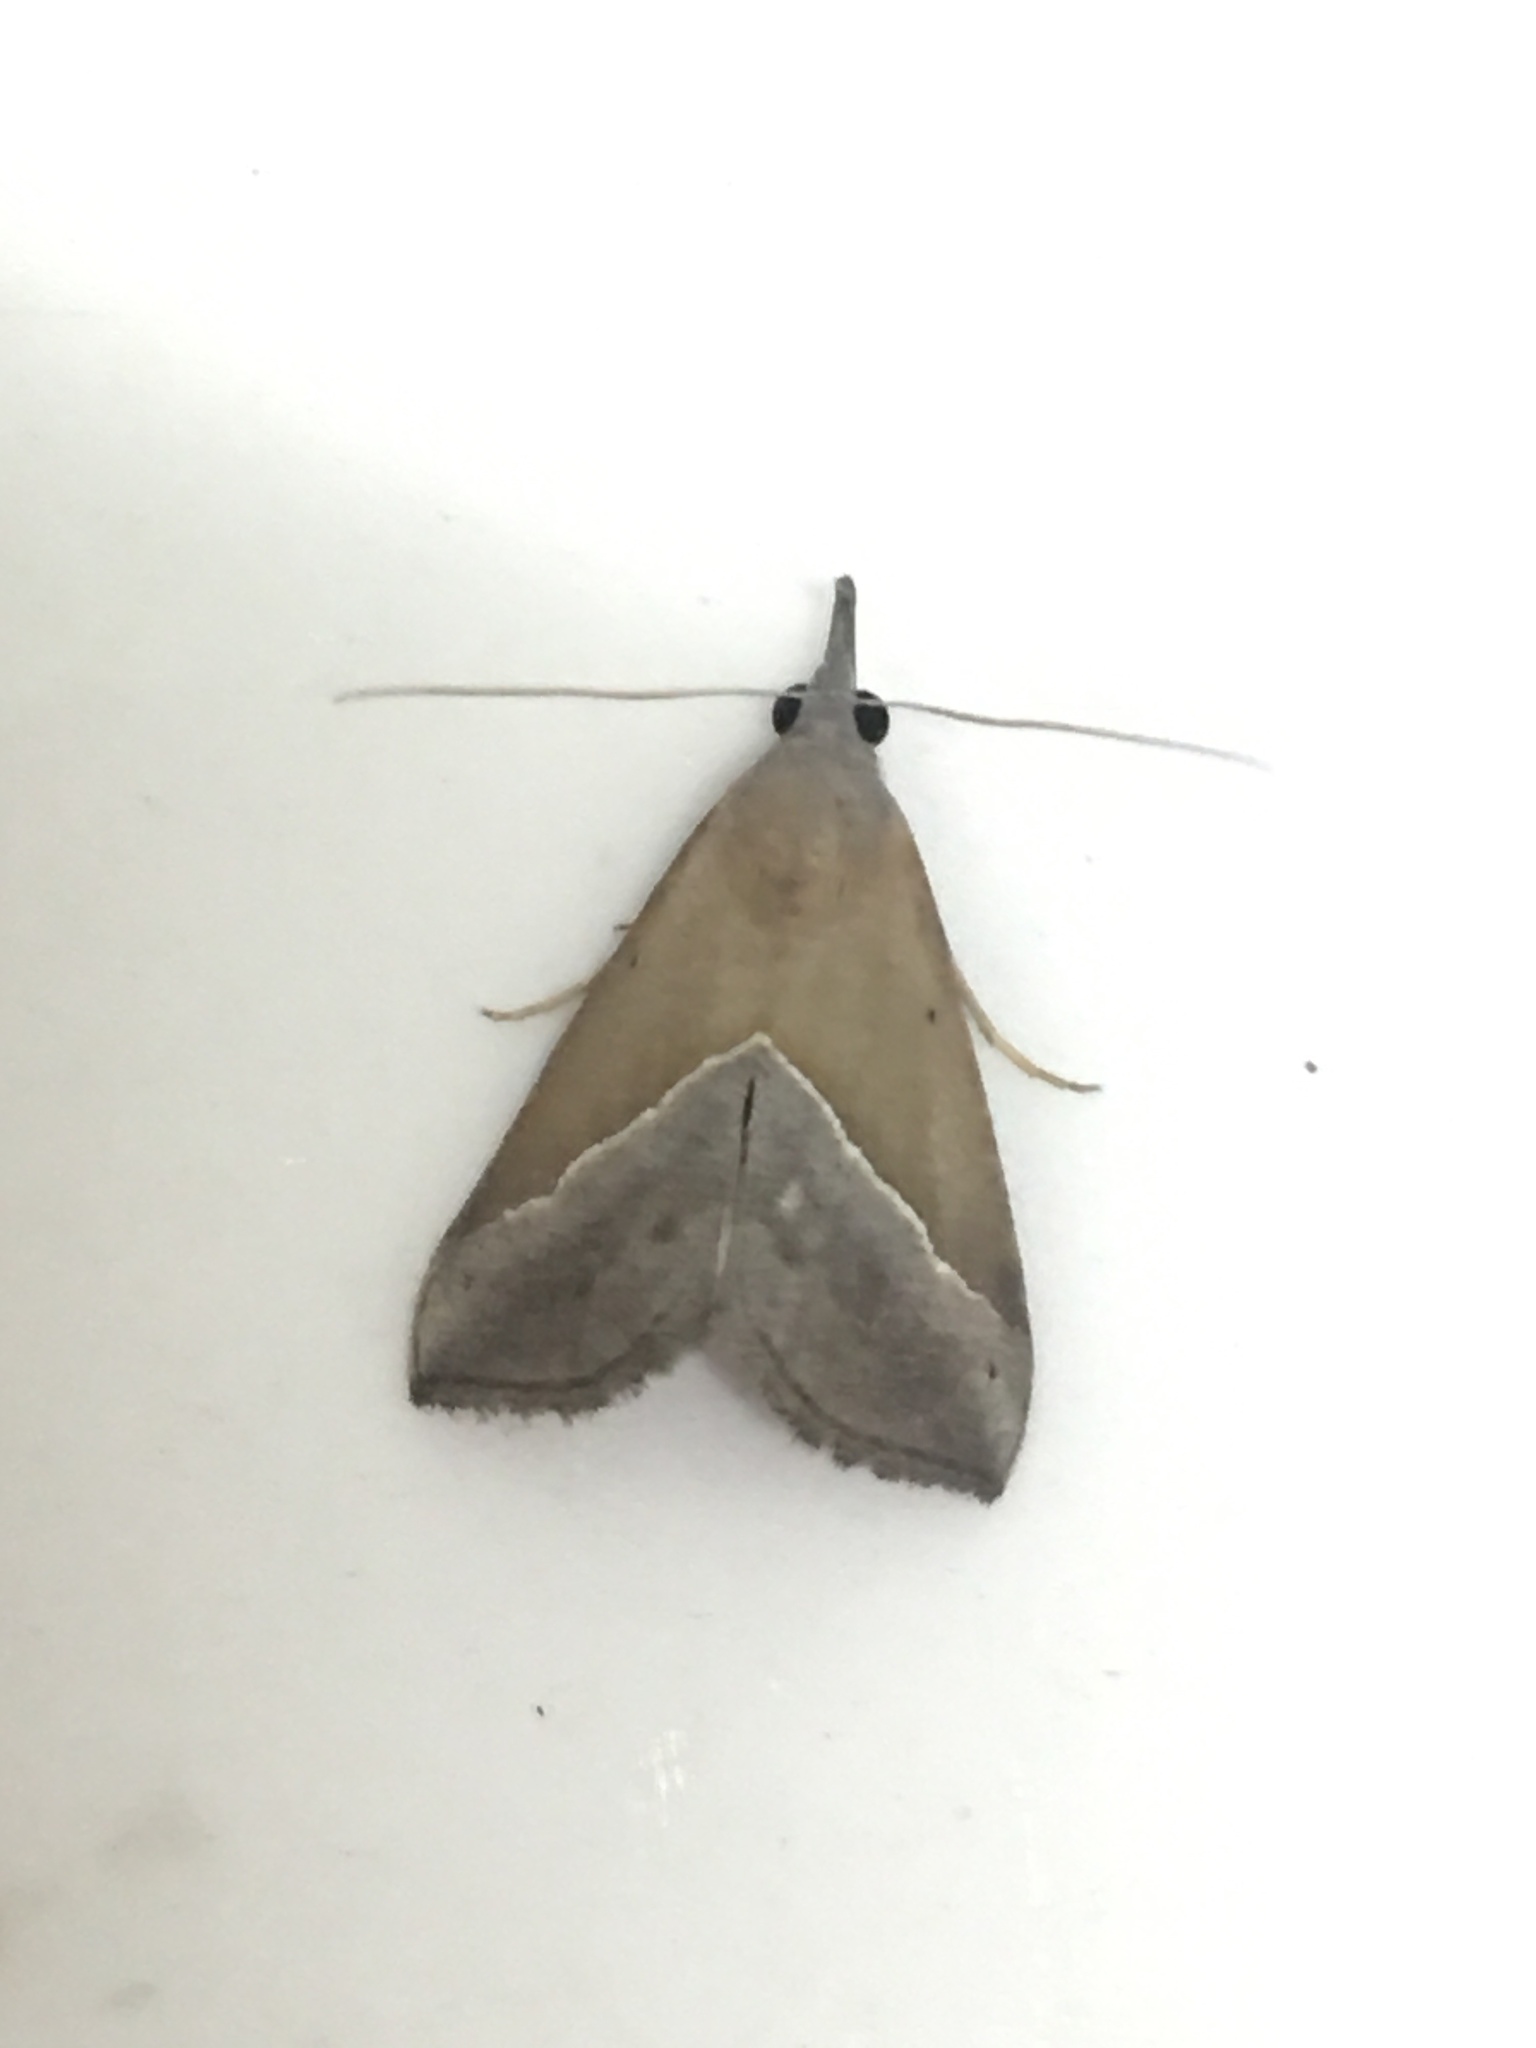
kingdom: Animalia
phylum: Arthropoda
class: Insecta
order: Lepidoptera
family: Erebidae
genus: Hypena
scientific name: Hypena lividalis
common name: Chevron snout
